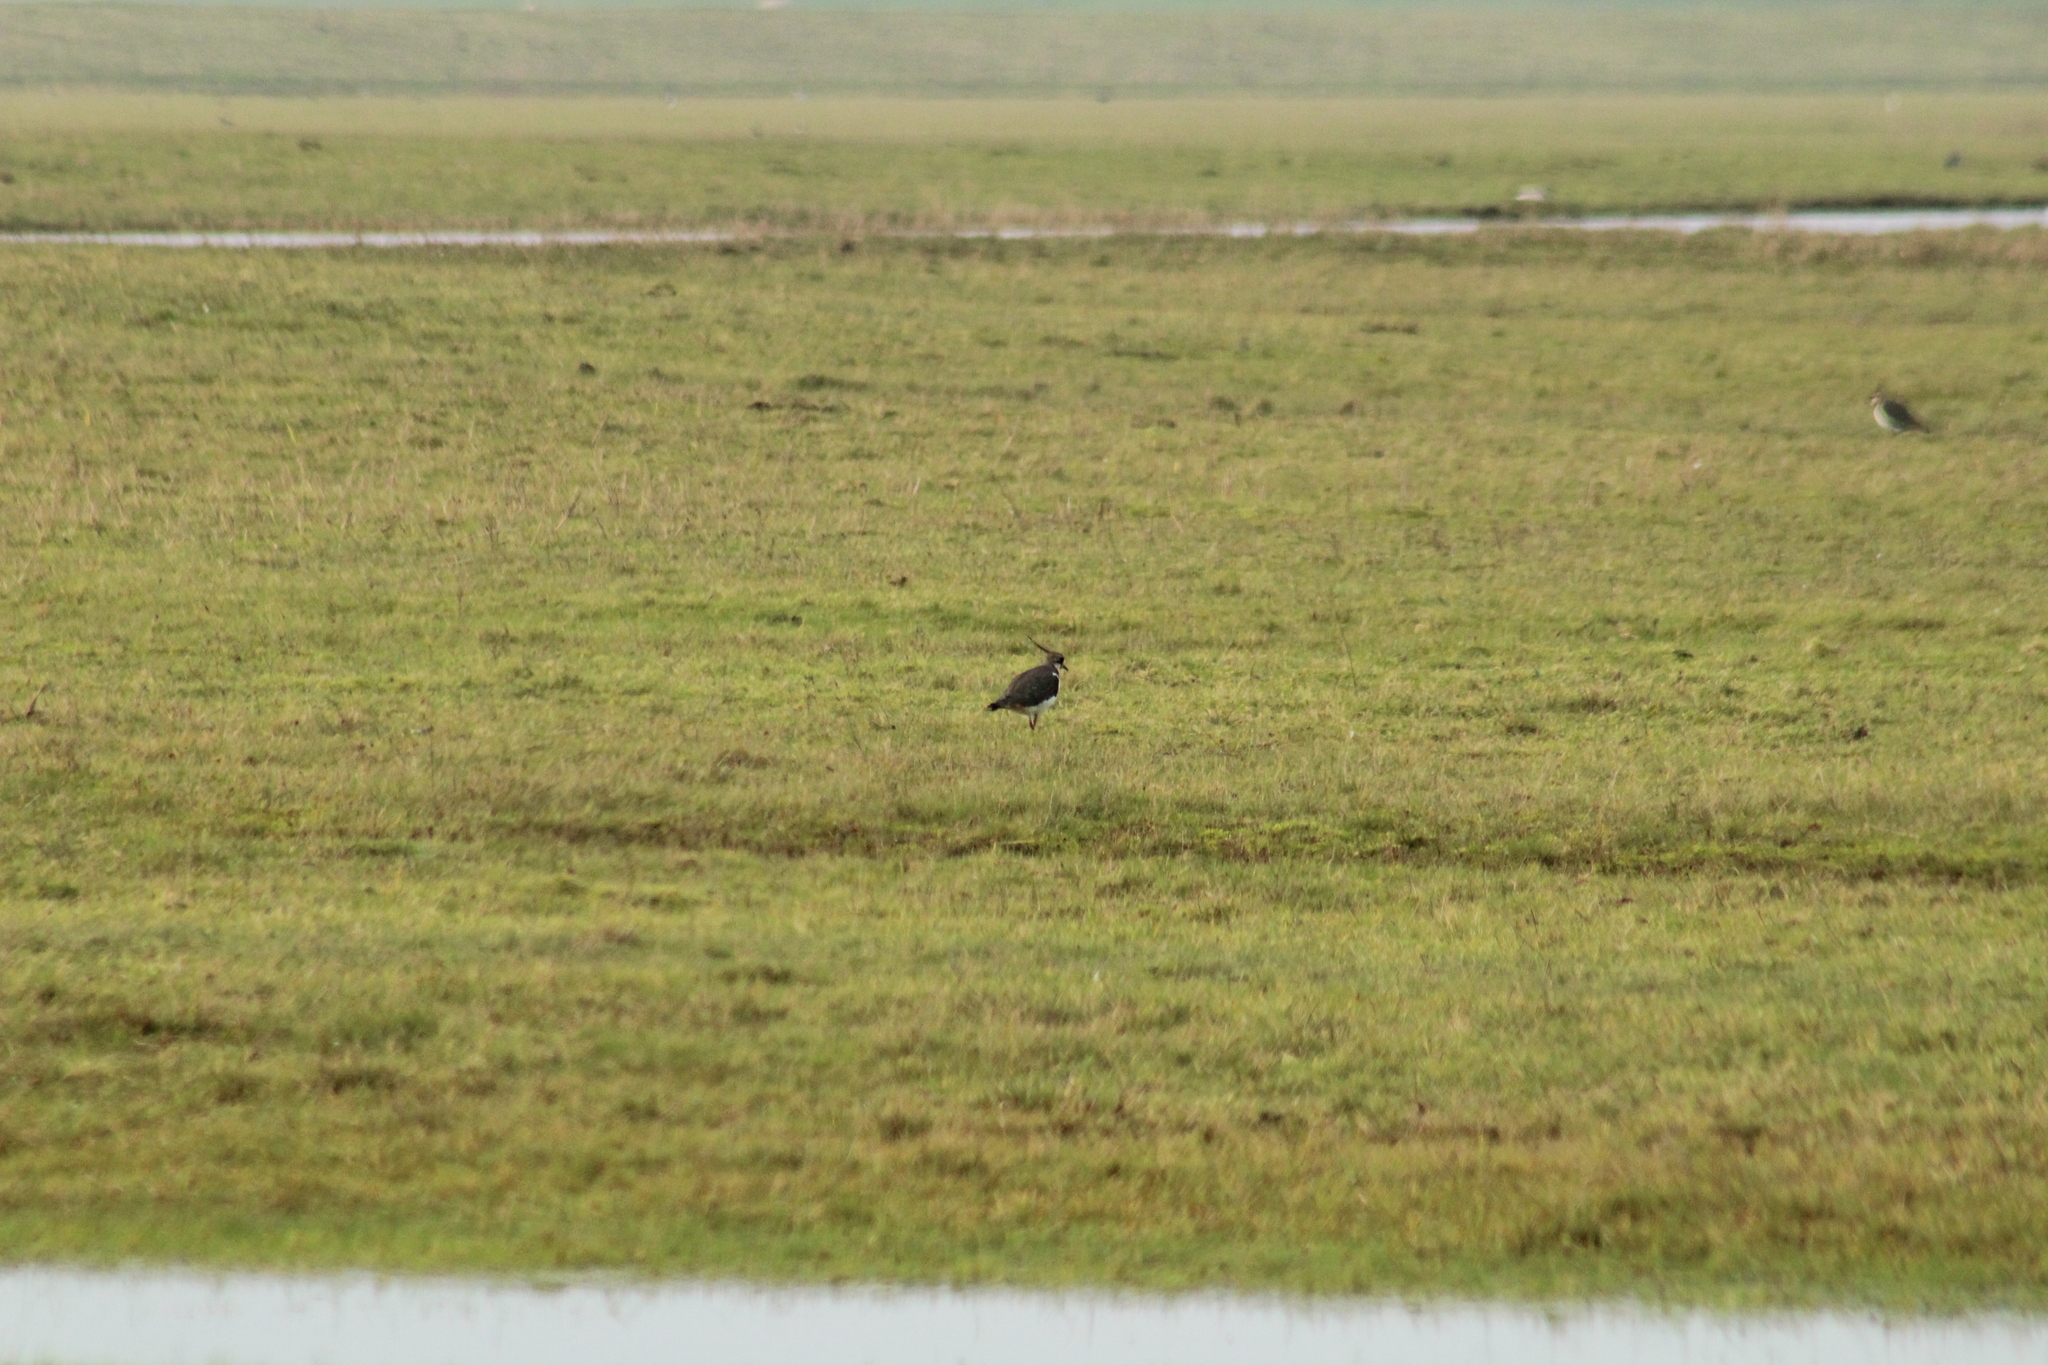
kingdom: Animalia
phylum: Chordata
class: Aves
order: Charadriiformes
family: Charadriidae
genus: Vanellus
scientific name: Vanellus vanellus
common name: Northern lapwing
